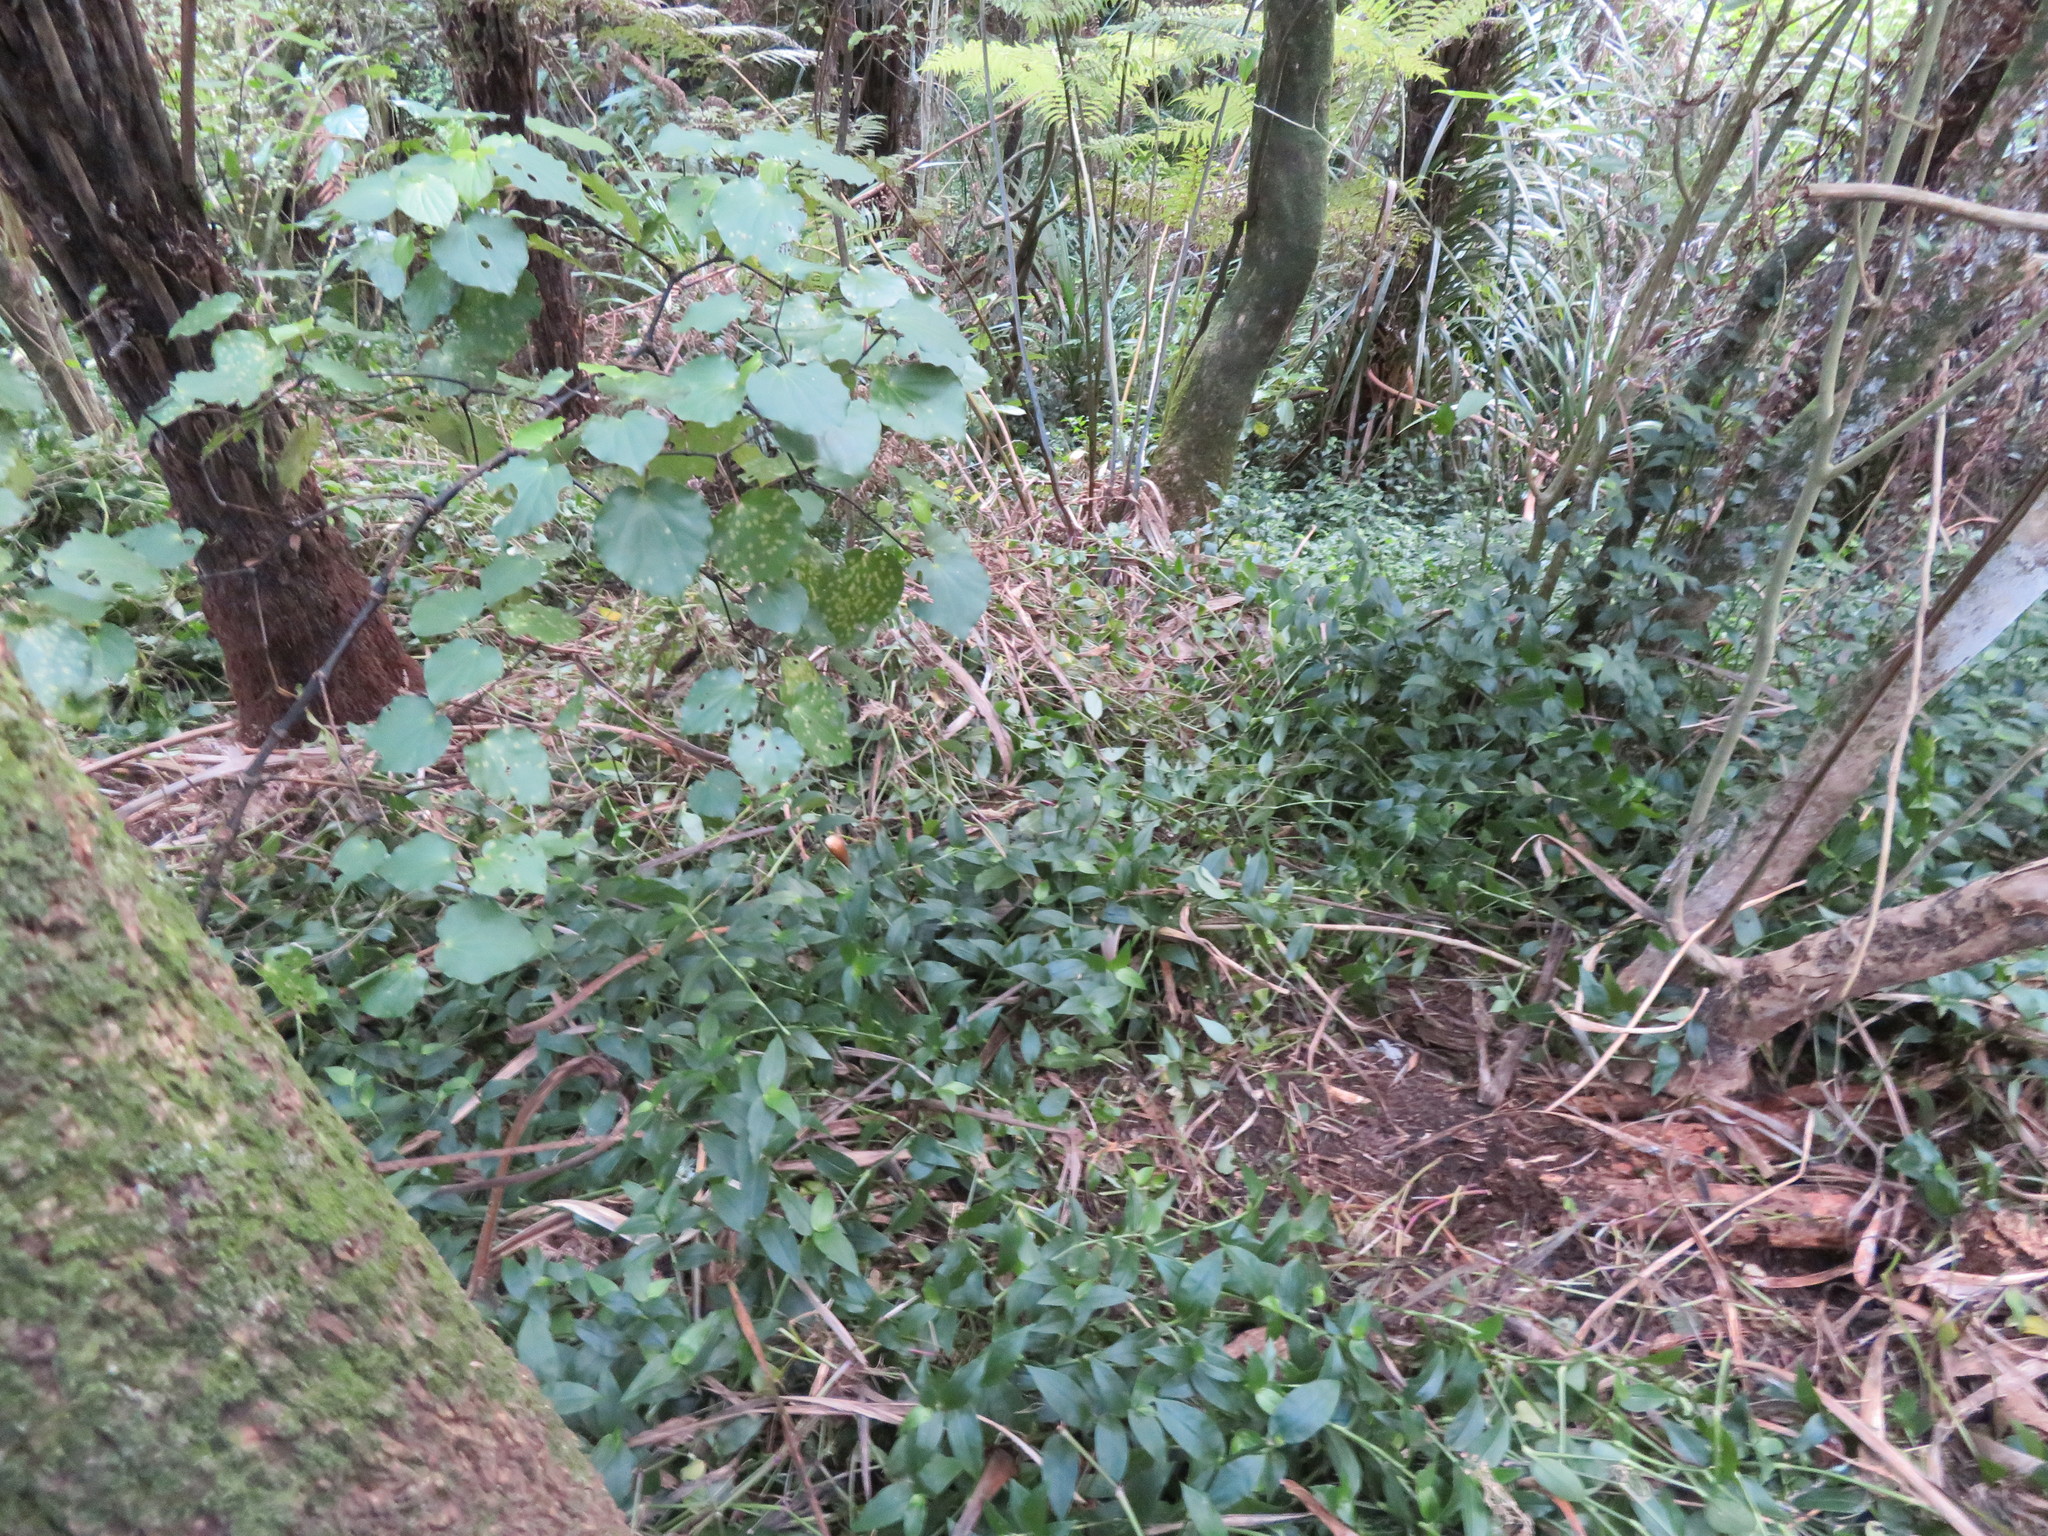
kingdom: Plantae
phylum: Tracheophyta
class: Magnoliopsida
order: Piperales
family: Piperaceae
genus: Macropiper
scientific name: Macropiper excelsum
